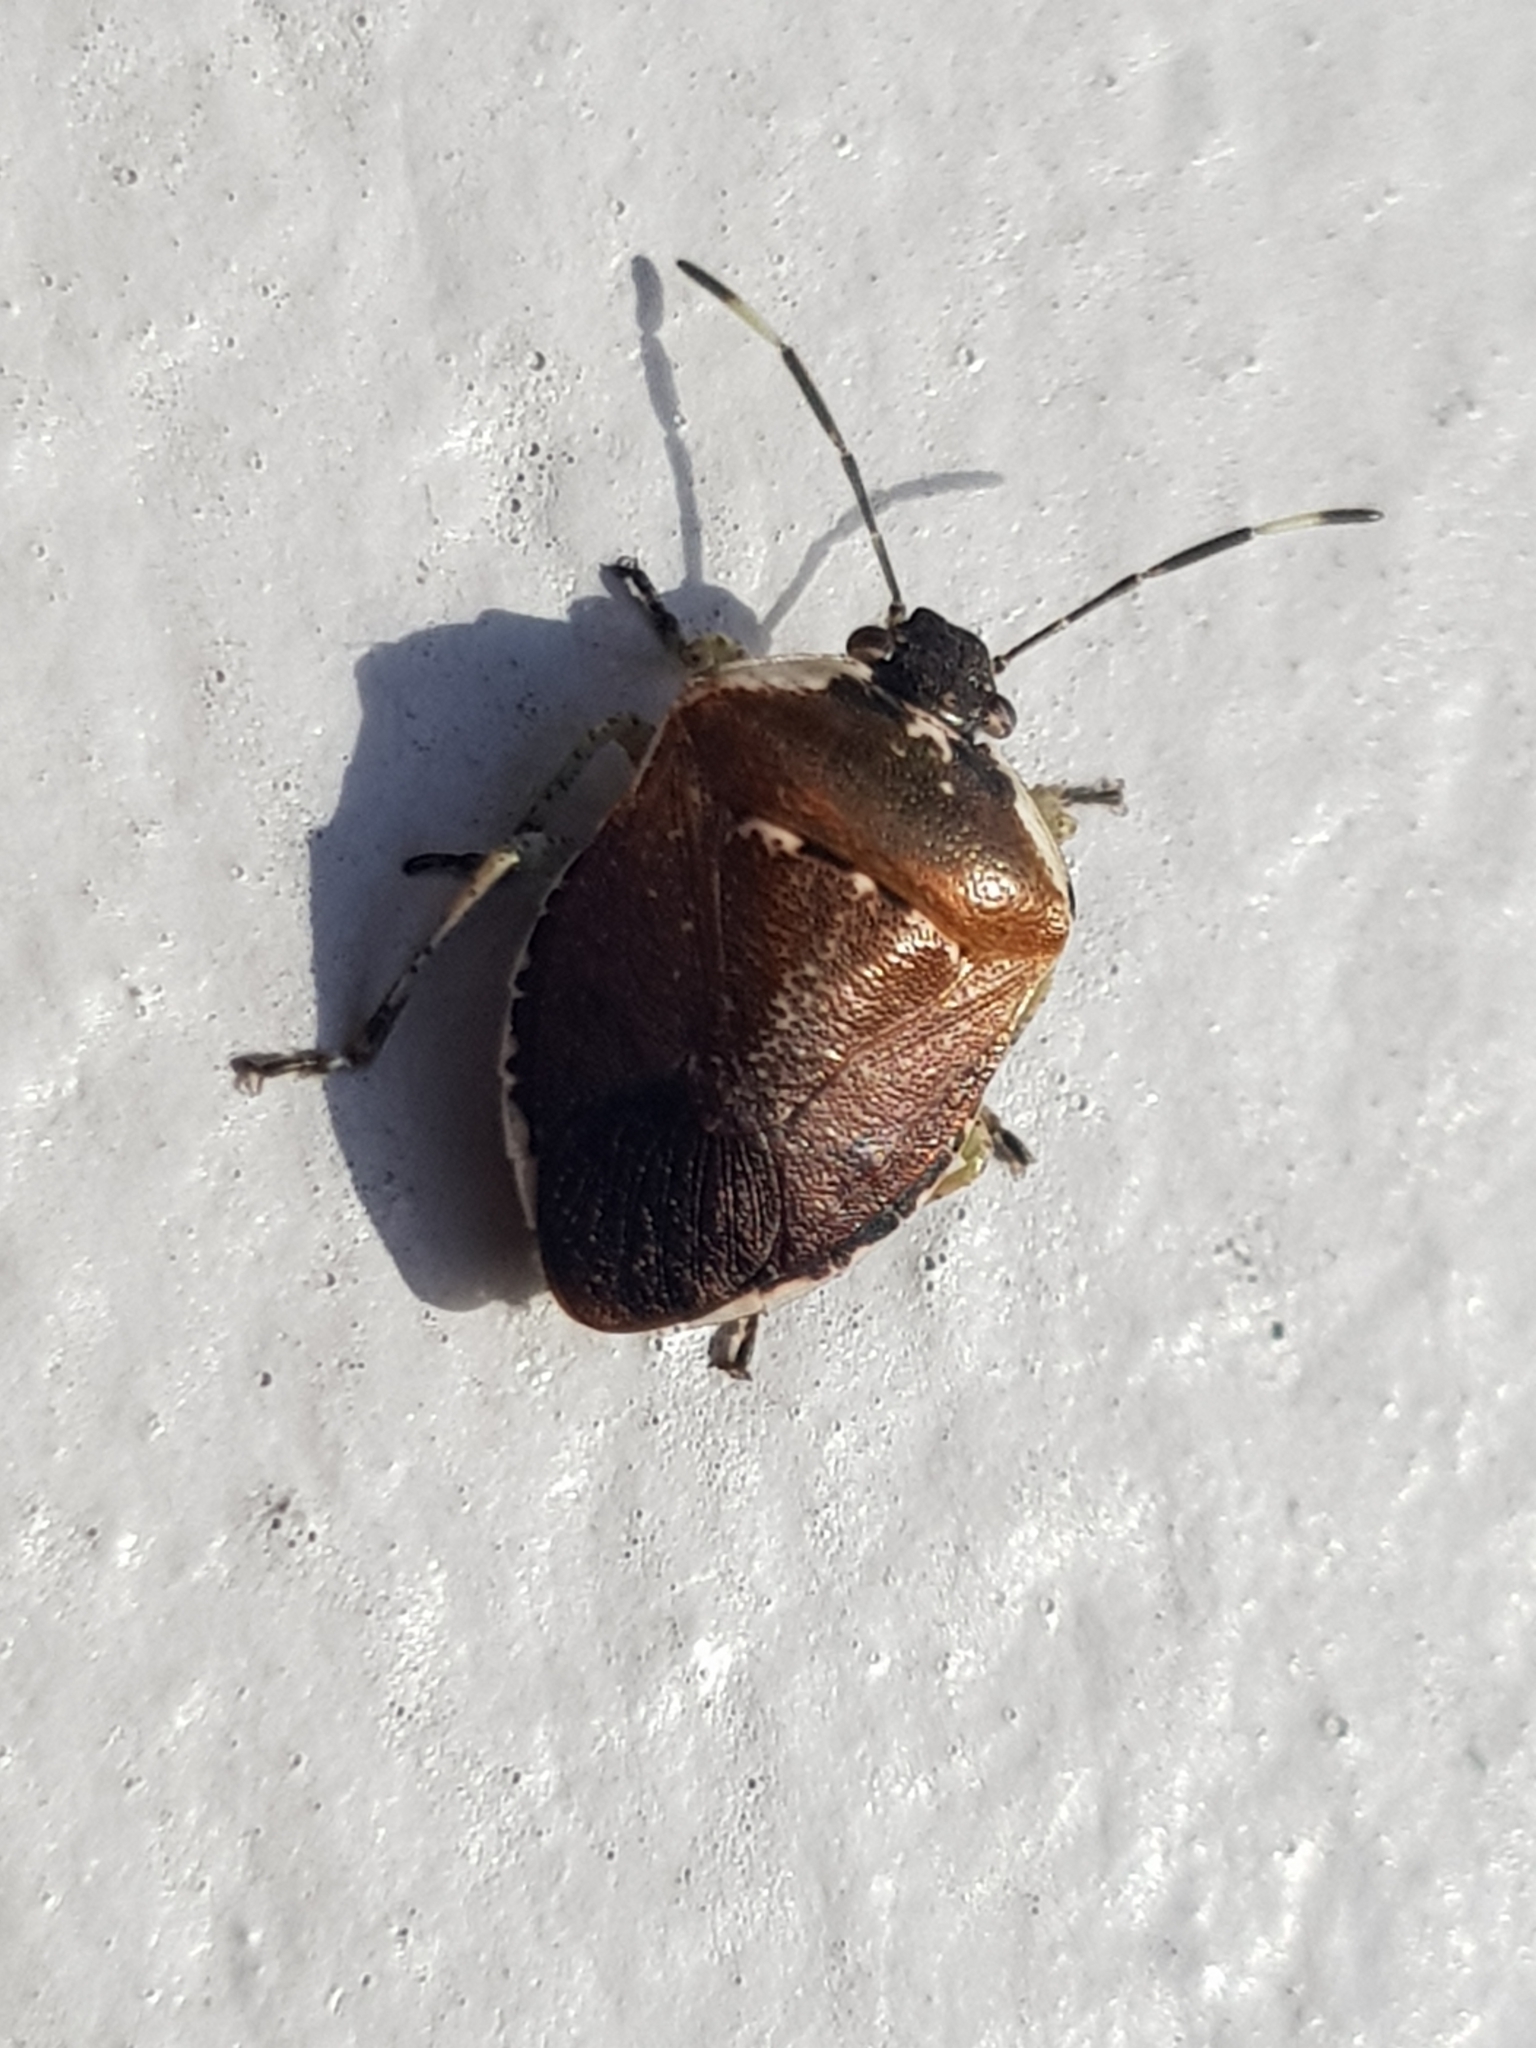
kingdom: Animalia
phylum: Arthropoda
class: Insecta
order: Hemiptera
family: Pentatomidae
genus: Monteithiella
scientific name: Monteithiella
